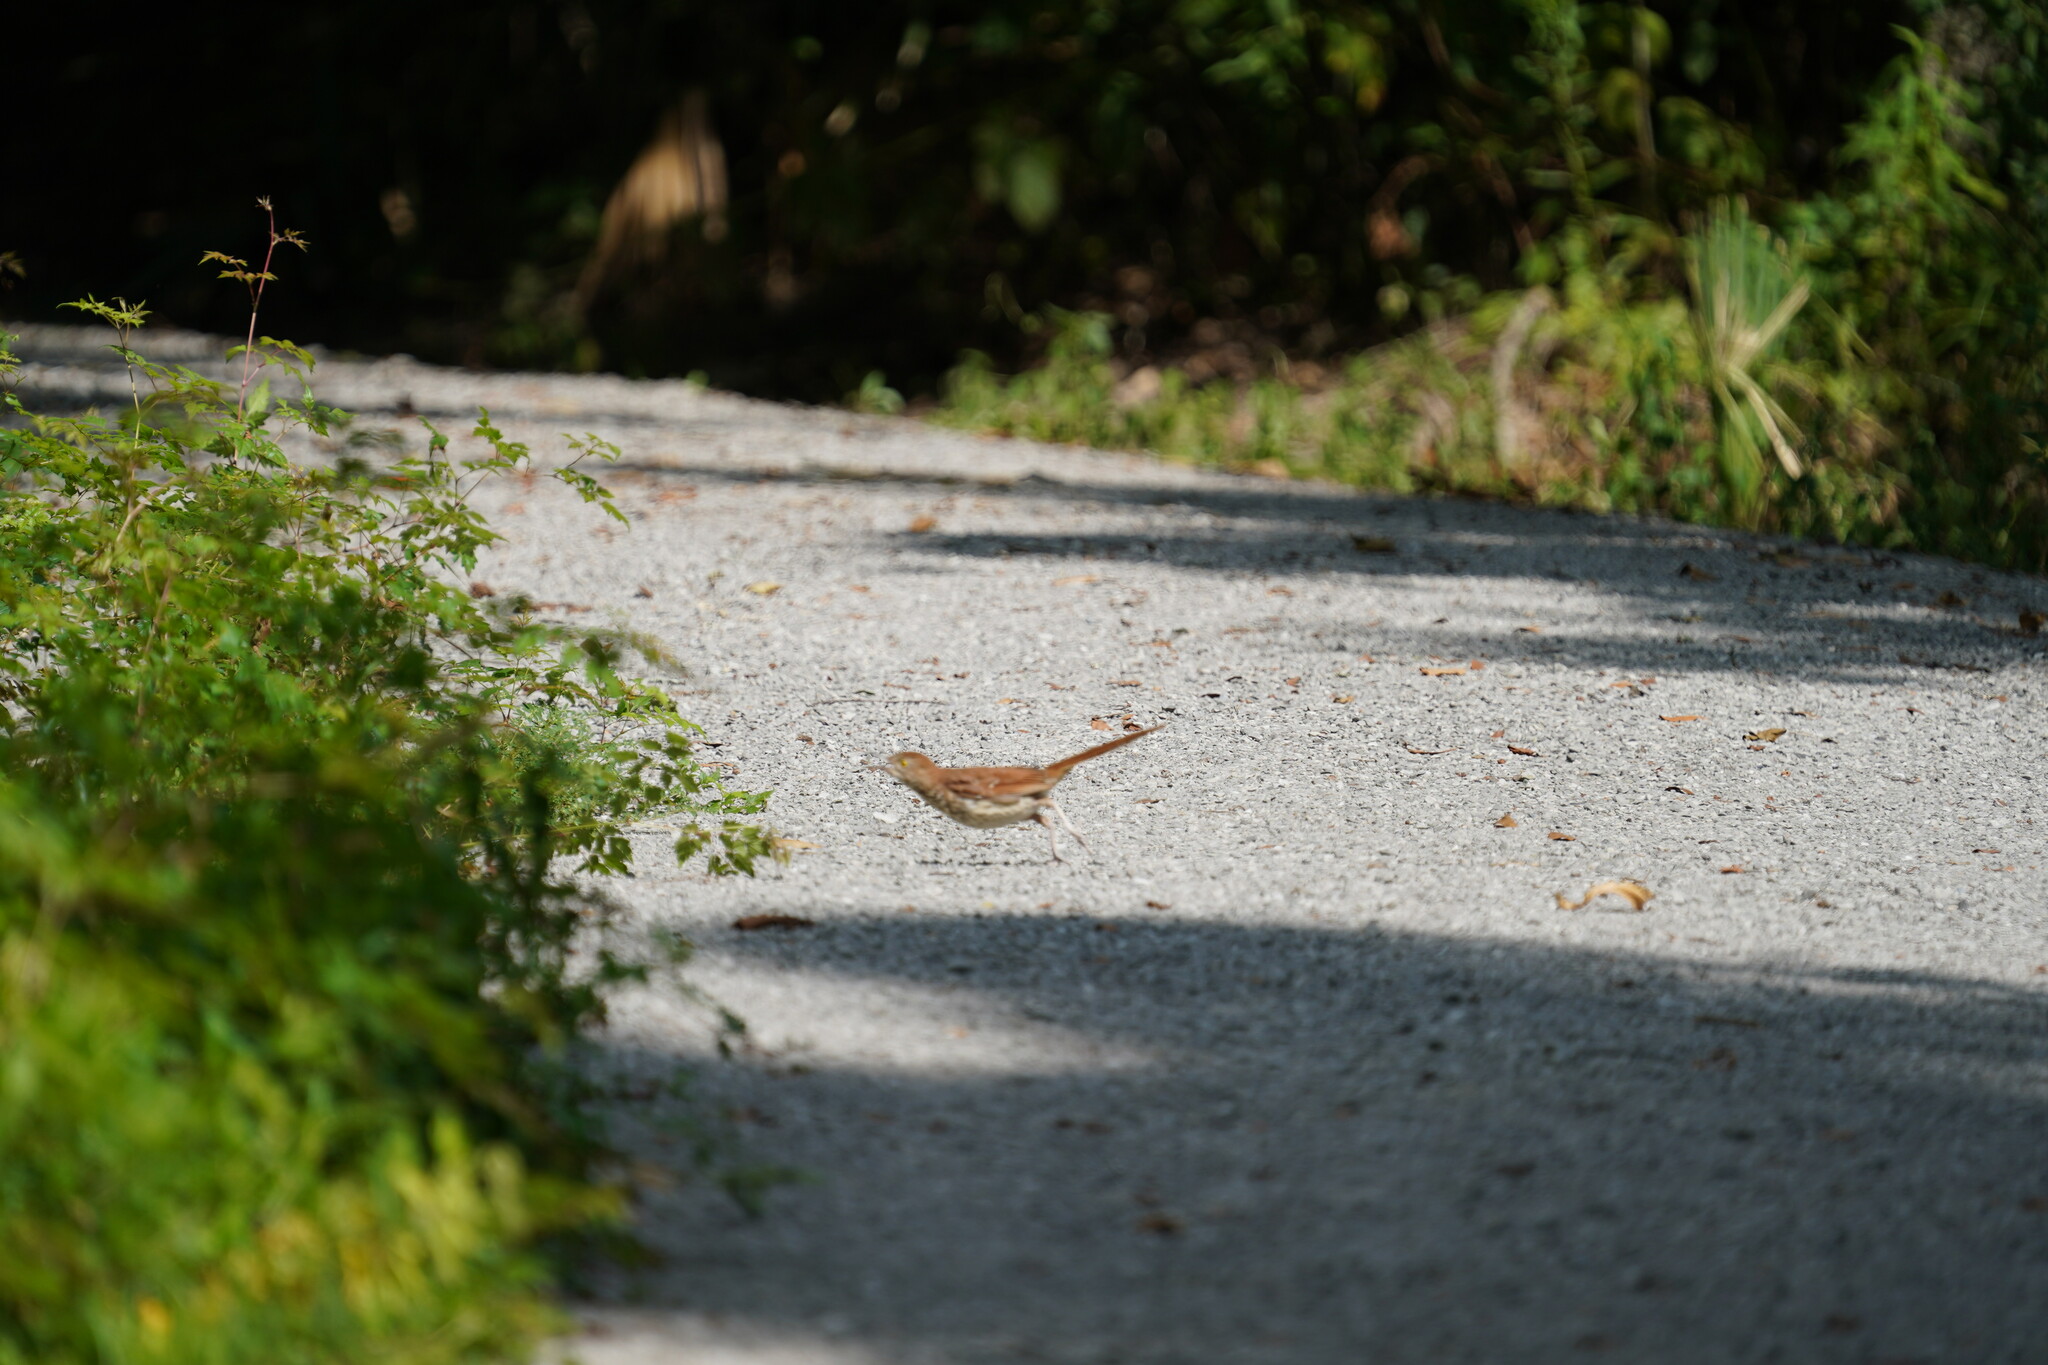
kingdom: Animalia
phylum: Chordata
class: Aves
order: Passeriformes
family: Mimidae
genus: Toxostoma
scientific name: Toxostoma rufum
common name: Brown thrasher
